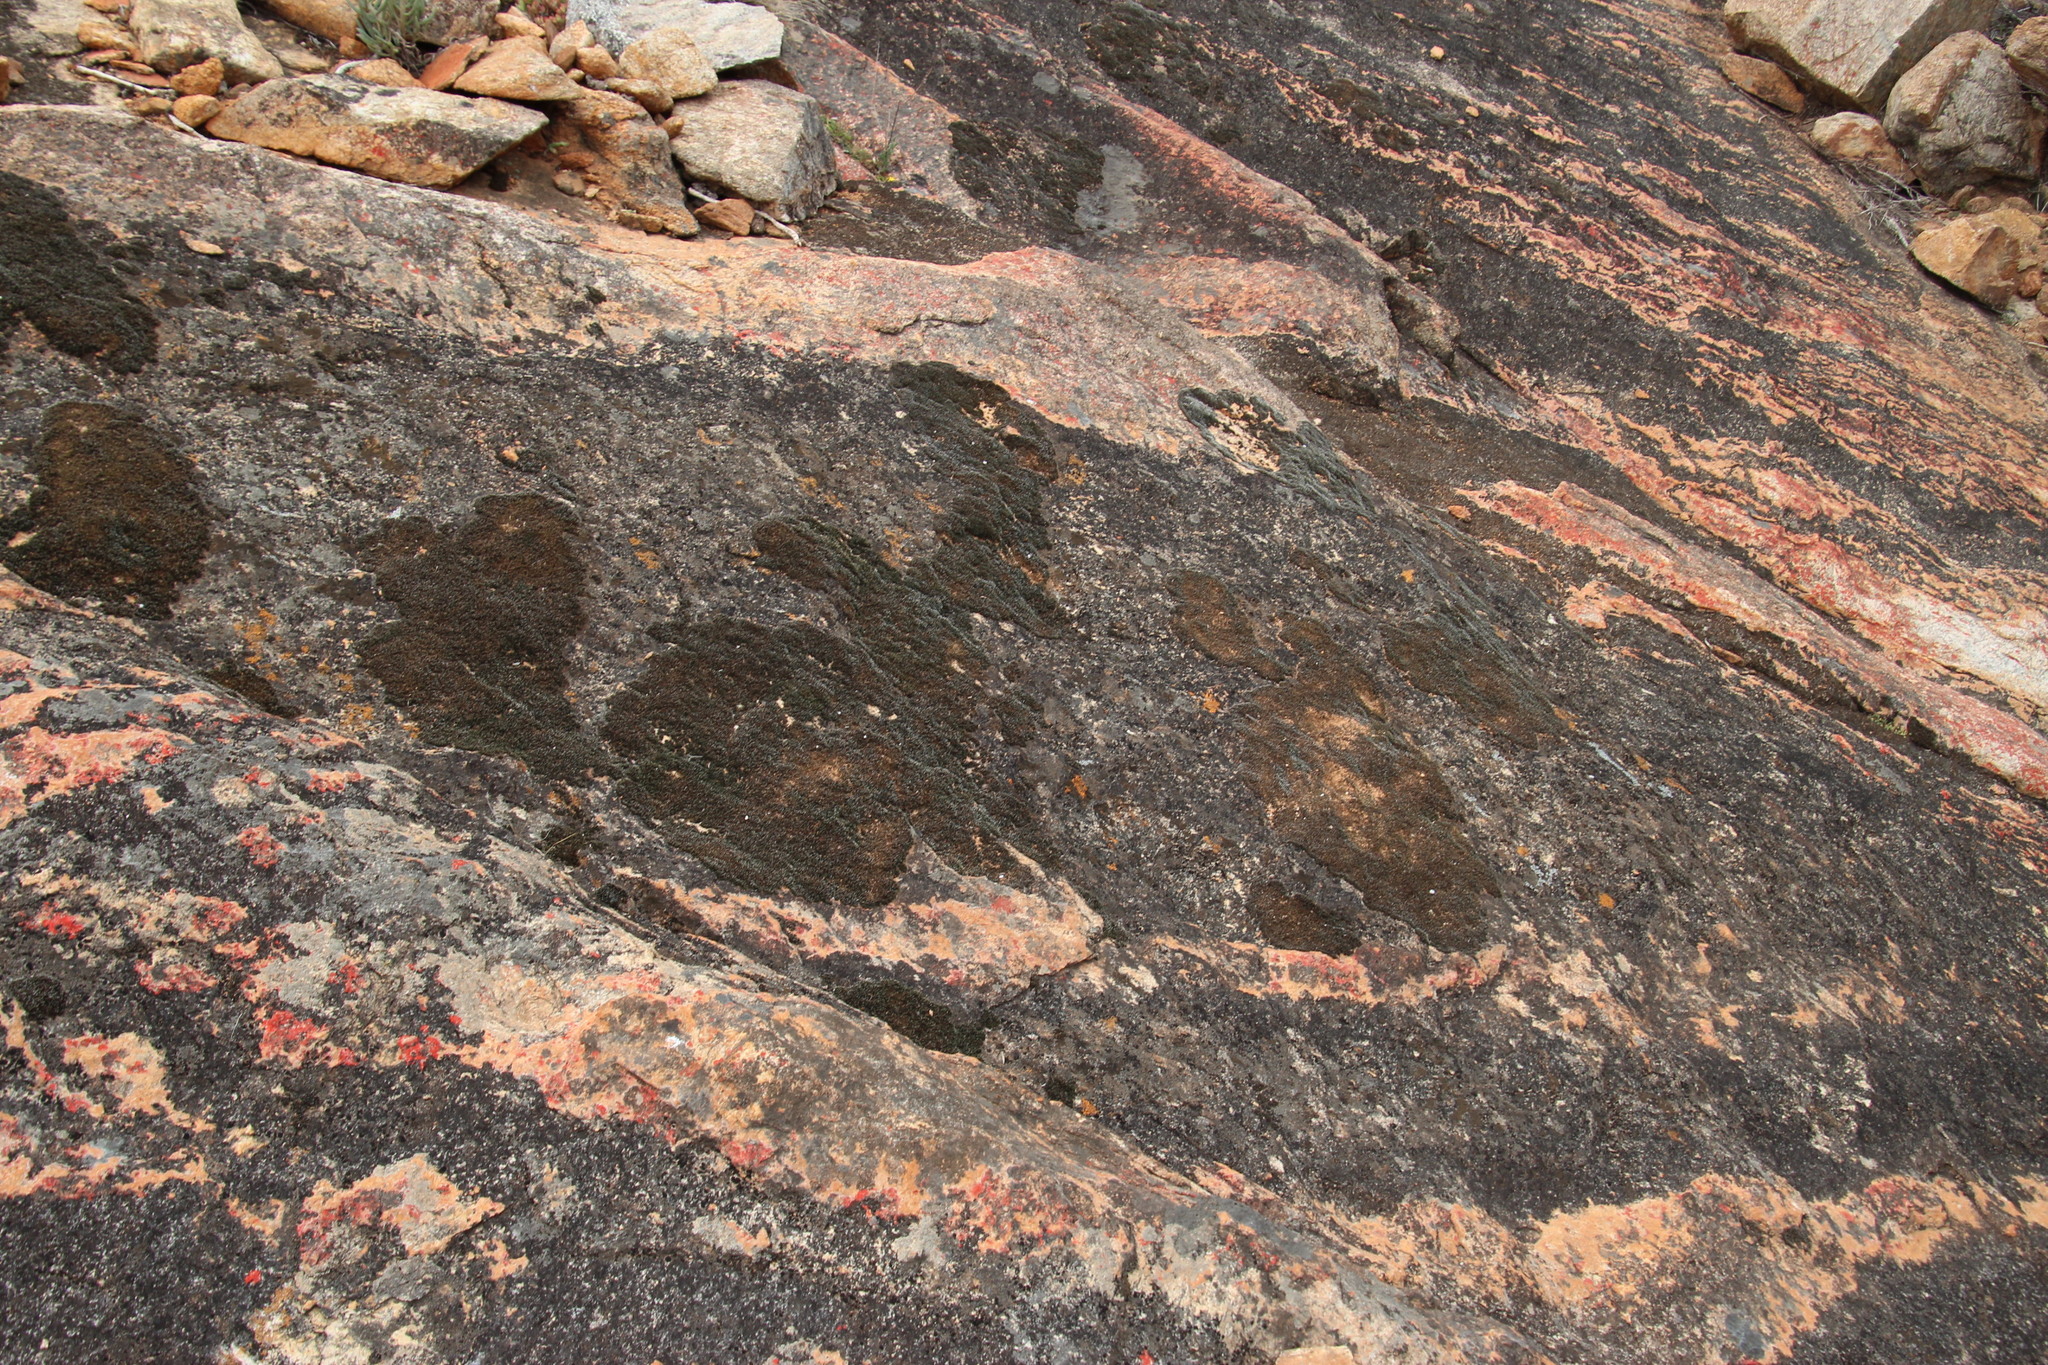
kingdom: Plantae
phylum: Bryophyta
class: Bryopsida
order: Grimmiales
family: Grimmiaceae
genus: Grimmia
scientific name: Grimmia laevigata
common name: Hoary grimmia
